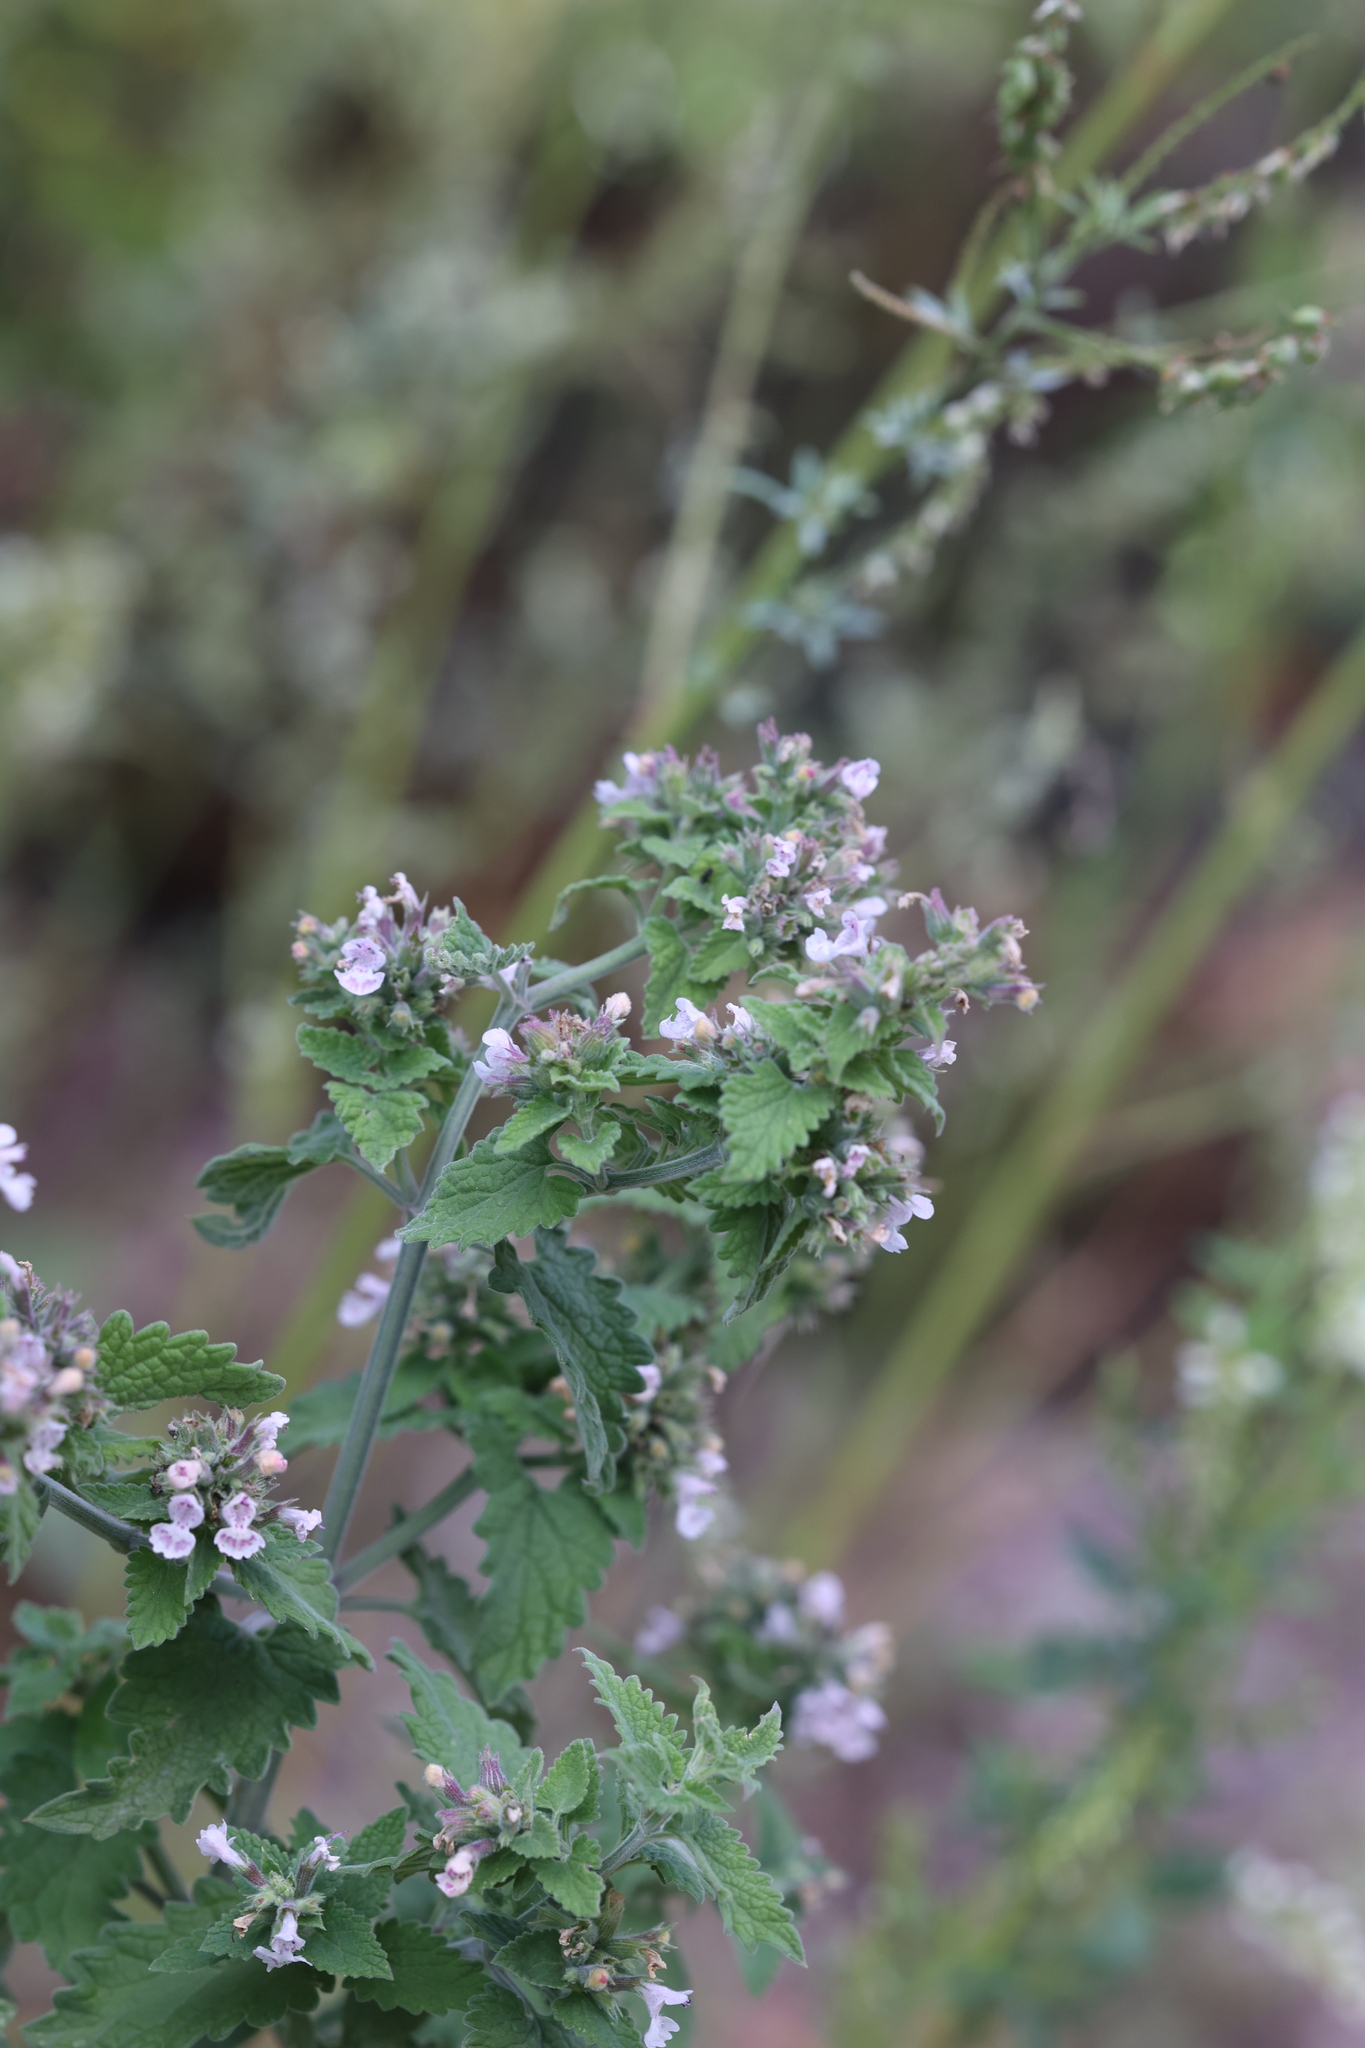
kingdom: Plantae
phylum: Tracheophyta
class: Magnoliopsida
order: Lamiales
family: Lamiaceae
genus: Nepeta
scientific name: Nepeta cataria
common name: Catnip
